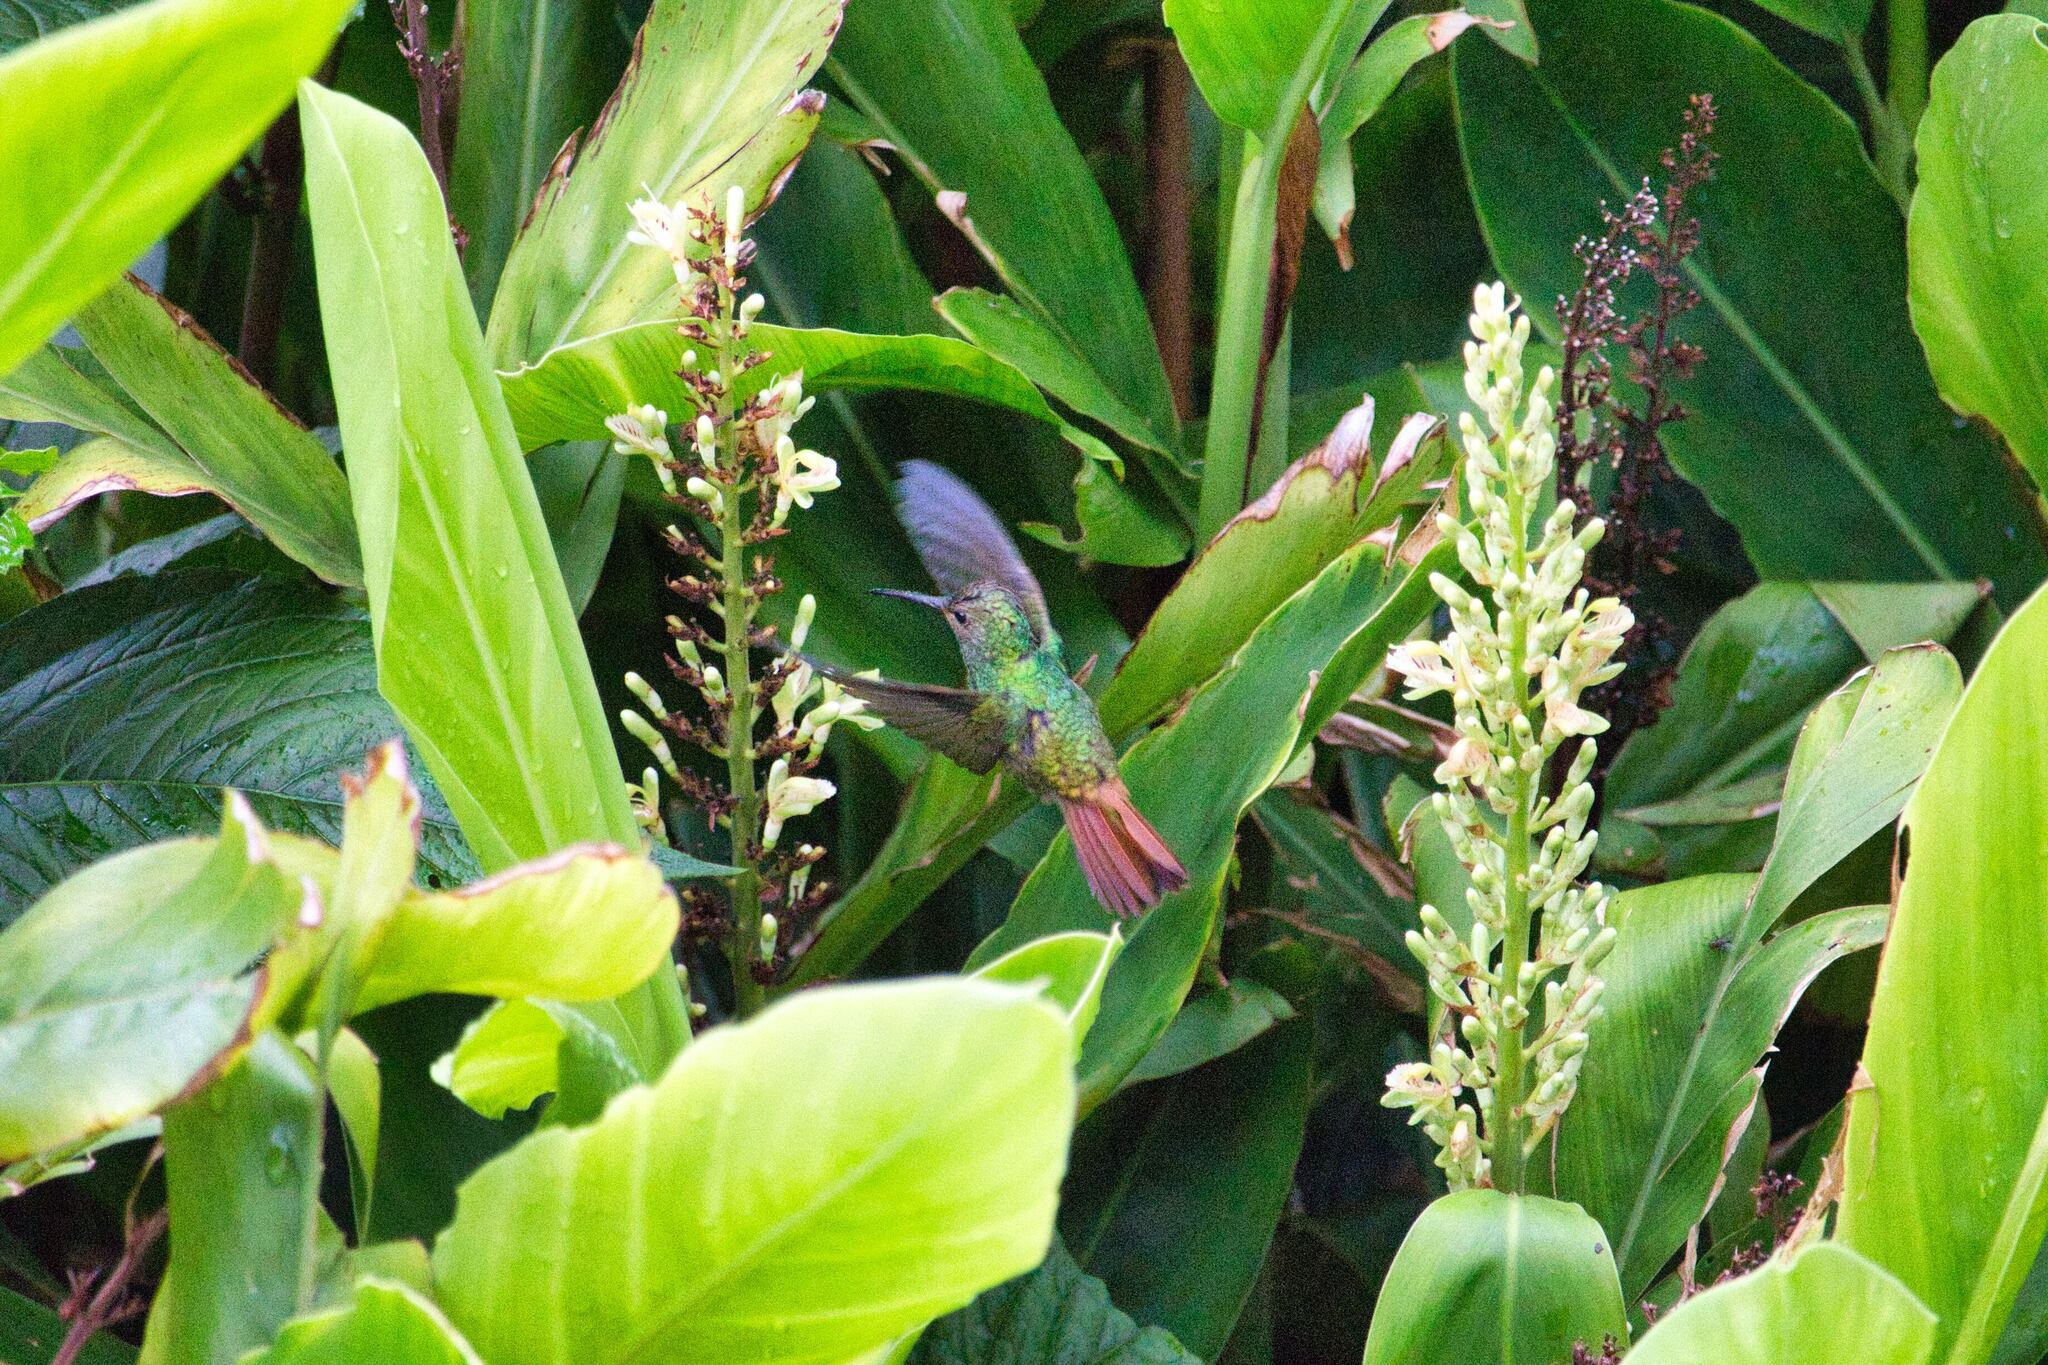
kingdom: Animalia
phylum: Chordata
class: Aves
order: Apodiformes
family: Trochilidae
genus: Amazilia
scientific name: Amazilia tzacatl
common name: Rufous-tailed hummingbird
